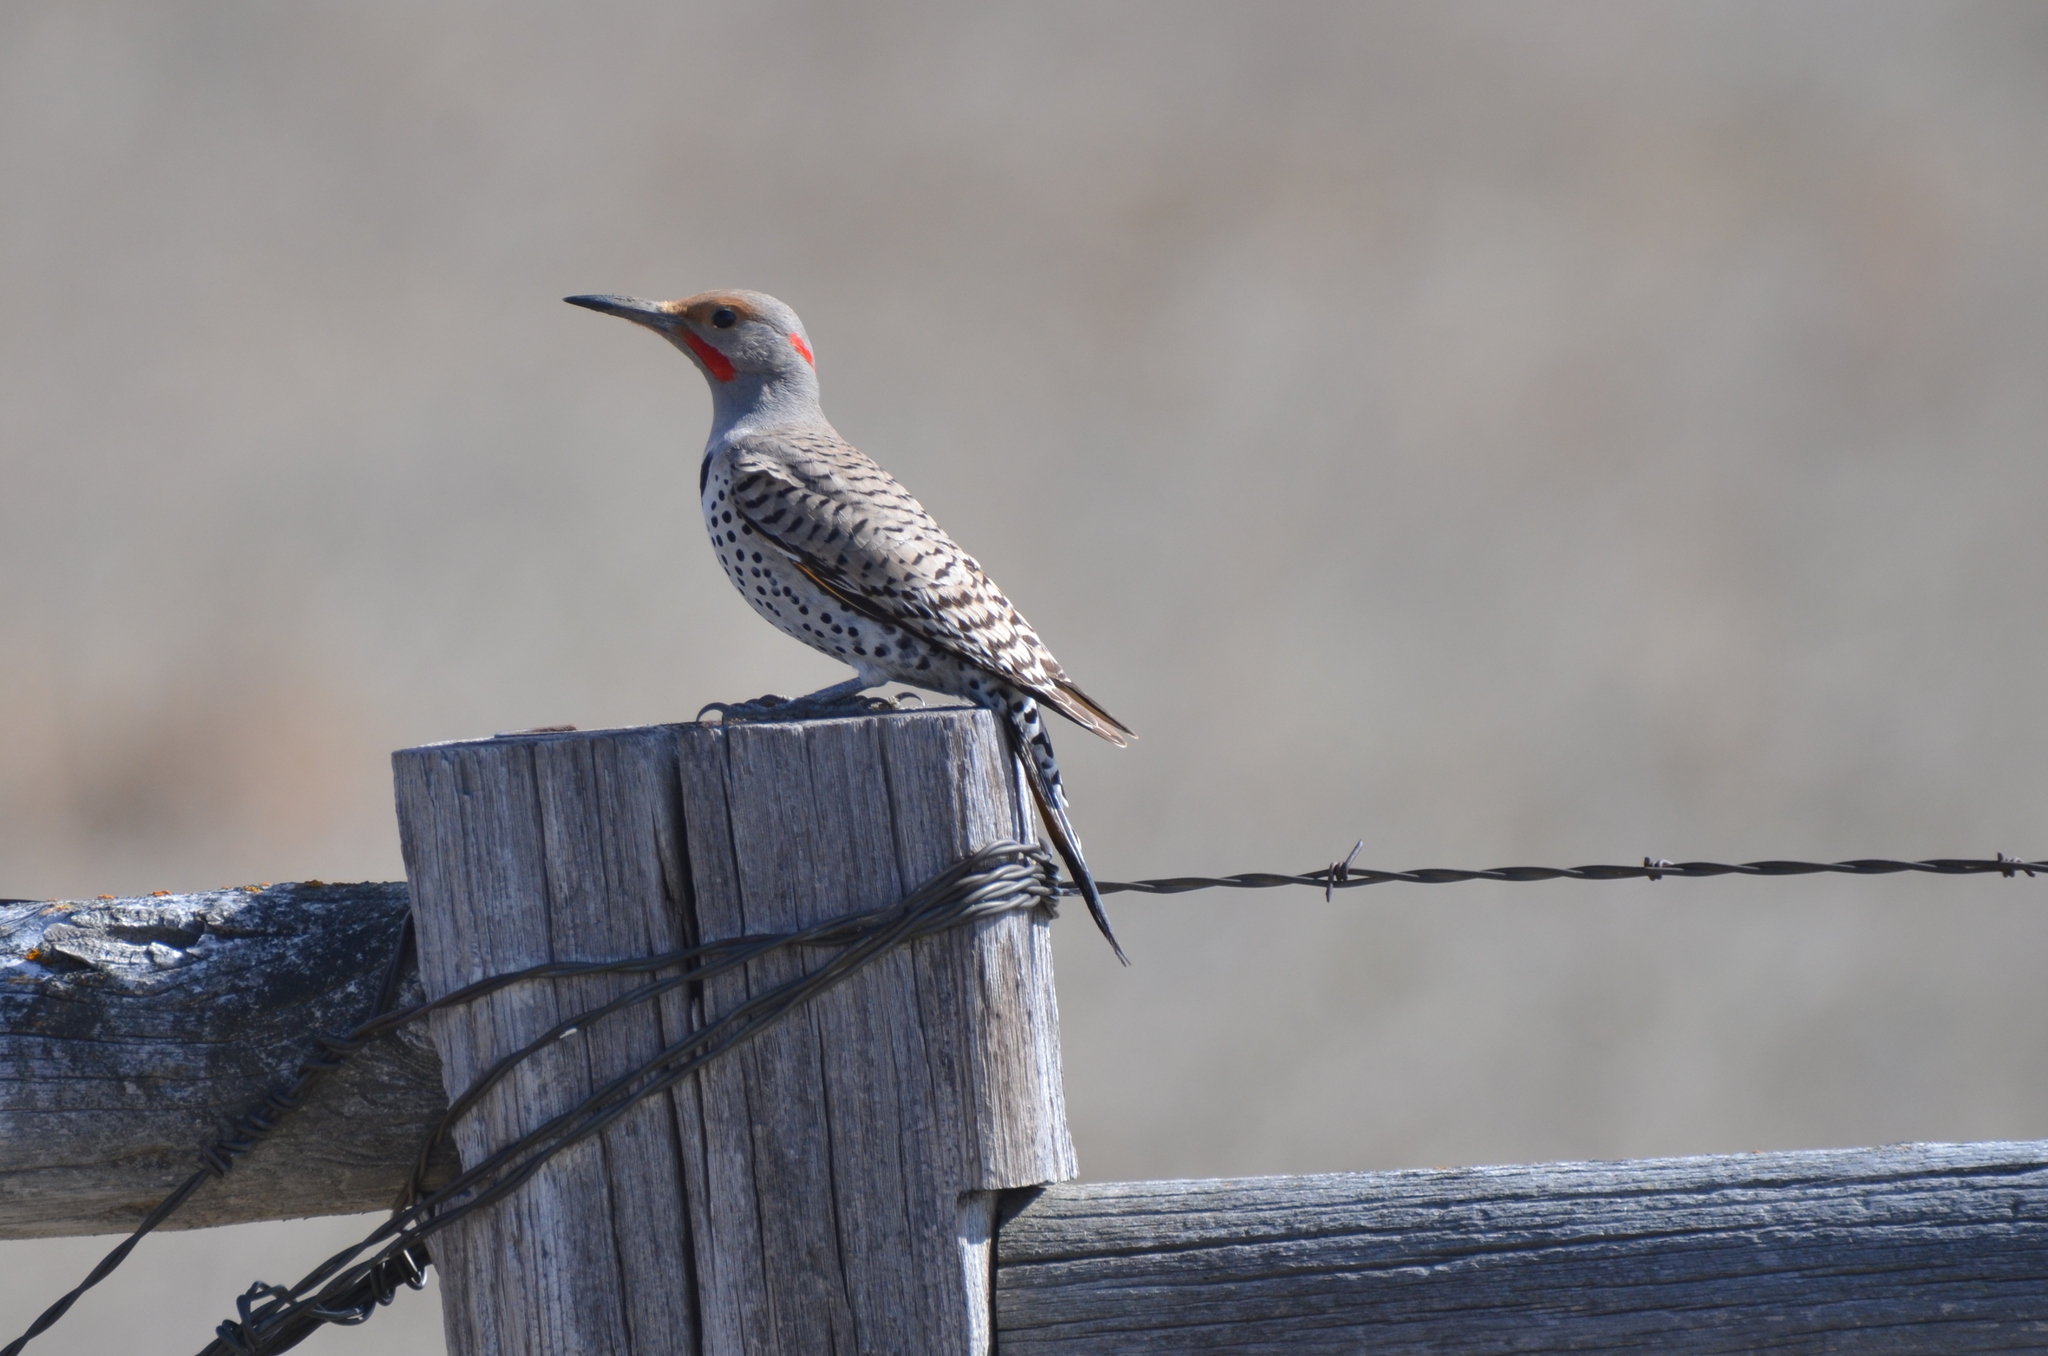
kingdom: Animalia
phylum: Chordata
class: Aves
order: Piciformes
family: Picidae
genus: Colaptes
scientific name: Colaptes auratus
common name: Northern flicker
